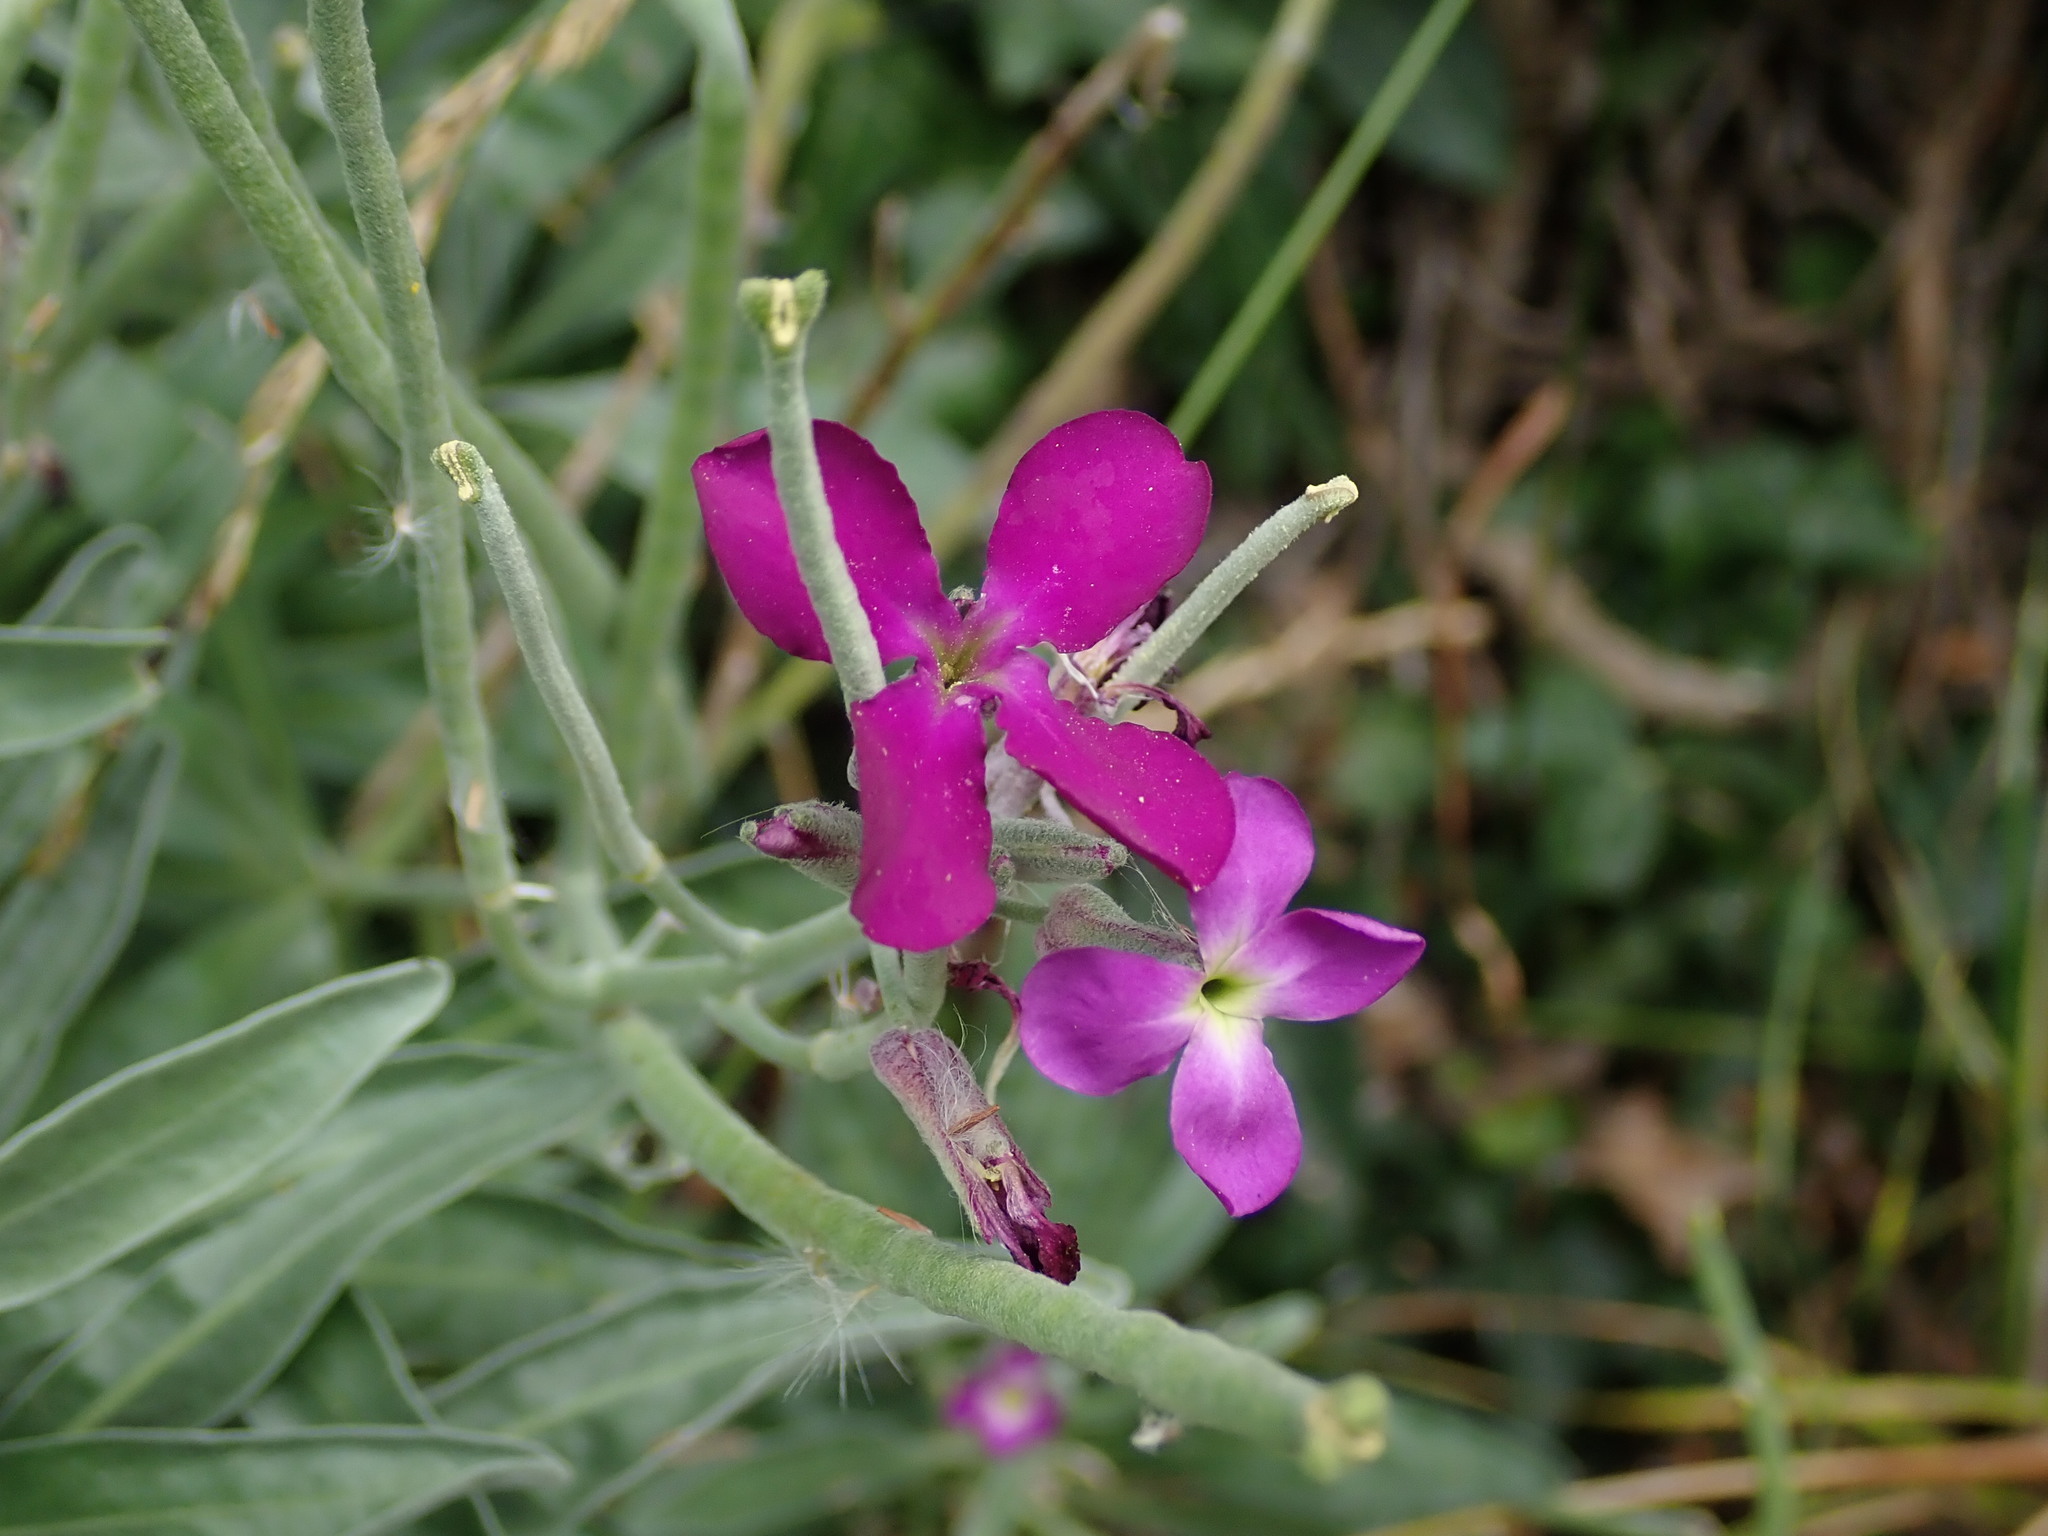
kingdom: Plantae
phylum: Tracheophyta
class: Magnoliopsida
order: Brassicales
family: Brassicaceae
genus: Matthiola
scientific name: Matthiola incana
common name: Hoary stock
